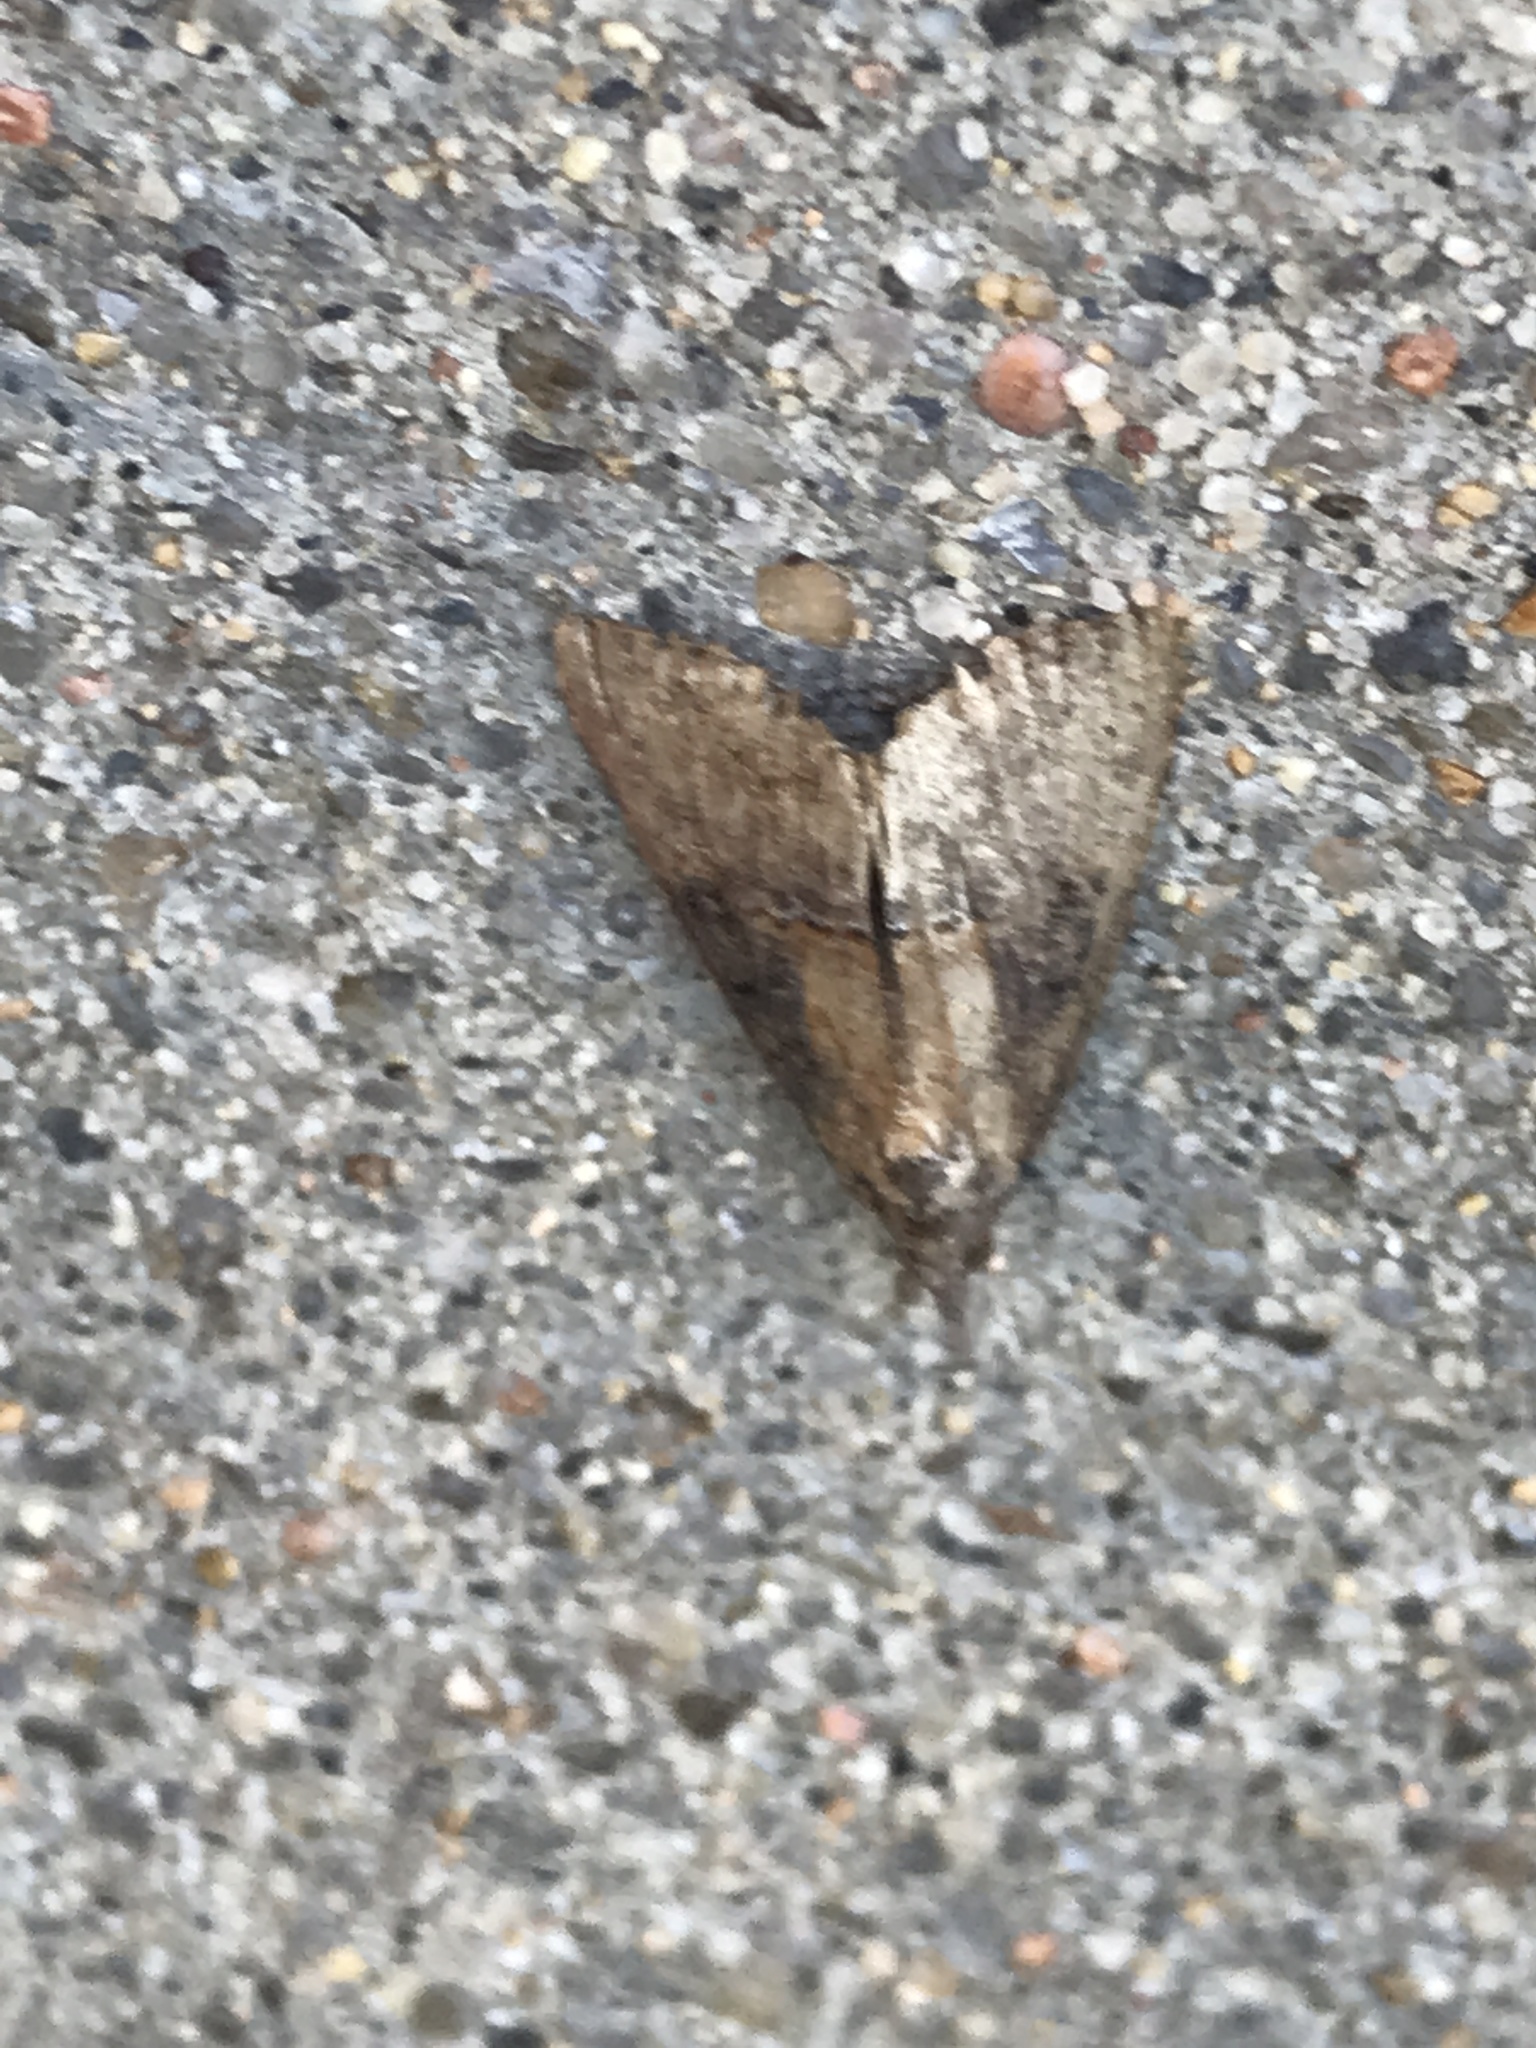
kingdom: Animalia
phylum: Arthropoda
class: Insecta
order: Lepidoptera
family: Erebidae
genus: Hypena
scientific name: Hypena scabra
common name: Green cloverworm
